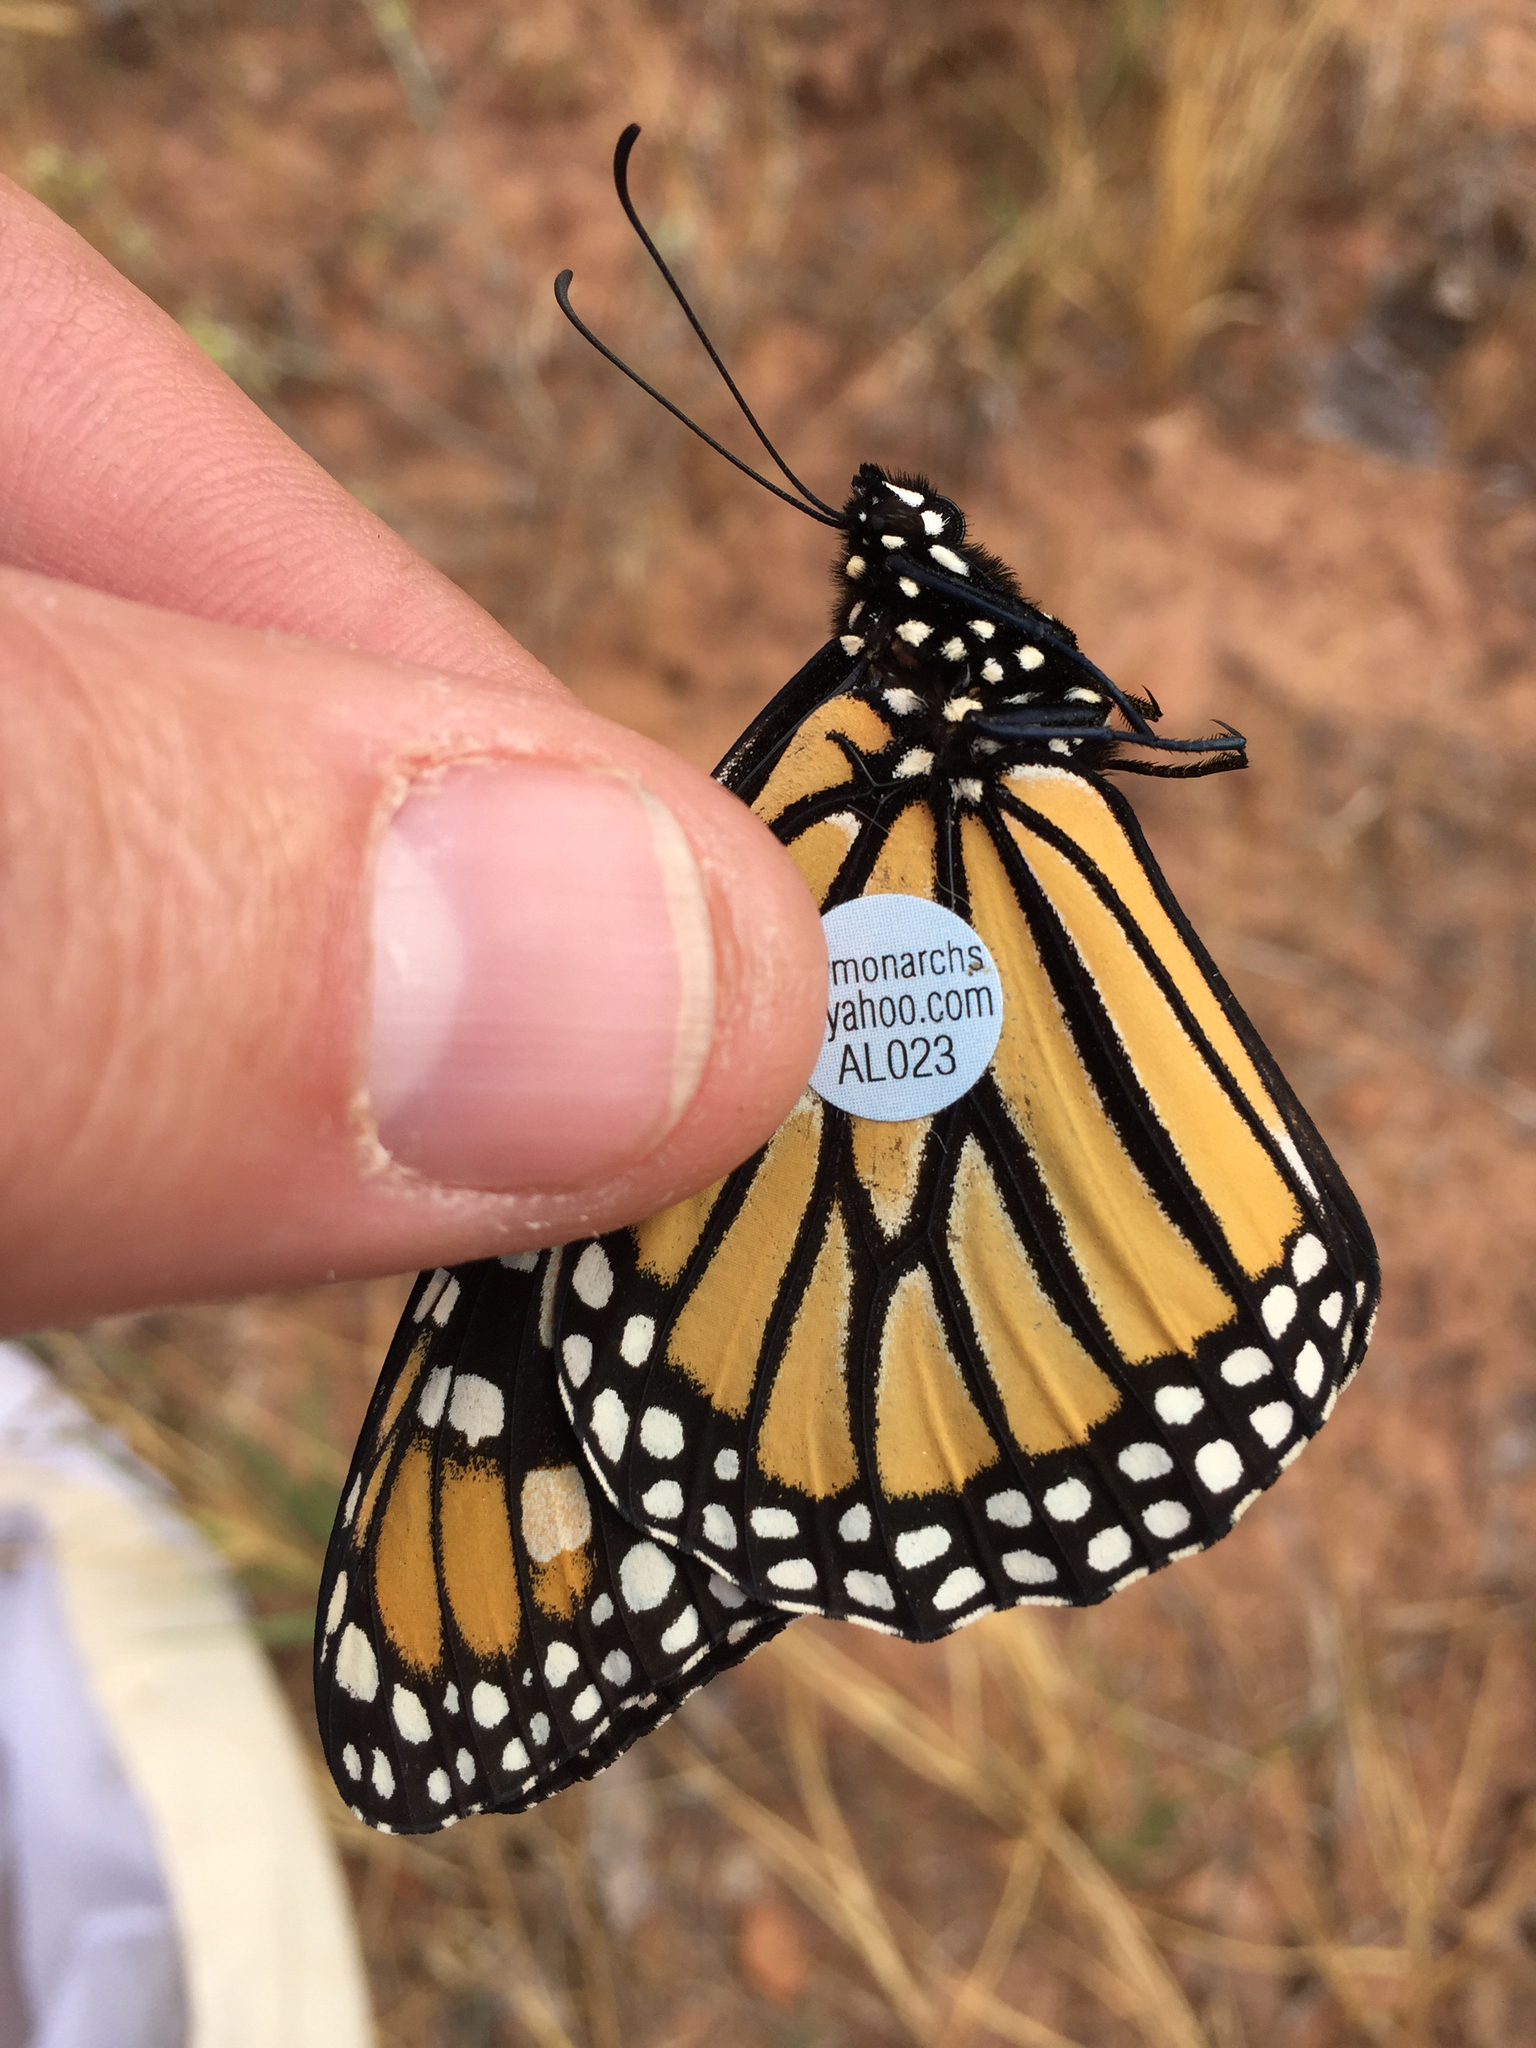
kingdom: Animalia
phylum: Arthropoda
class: Insecta
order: Lepidoptera
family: Nymphalidae
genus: Danaus
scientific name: Danaus plexippus
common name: Monarch
